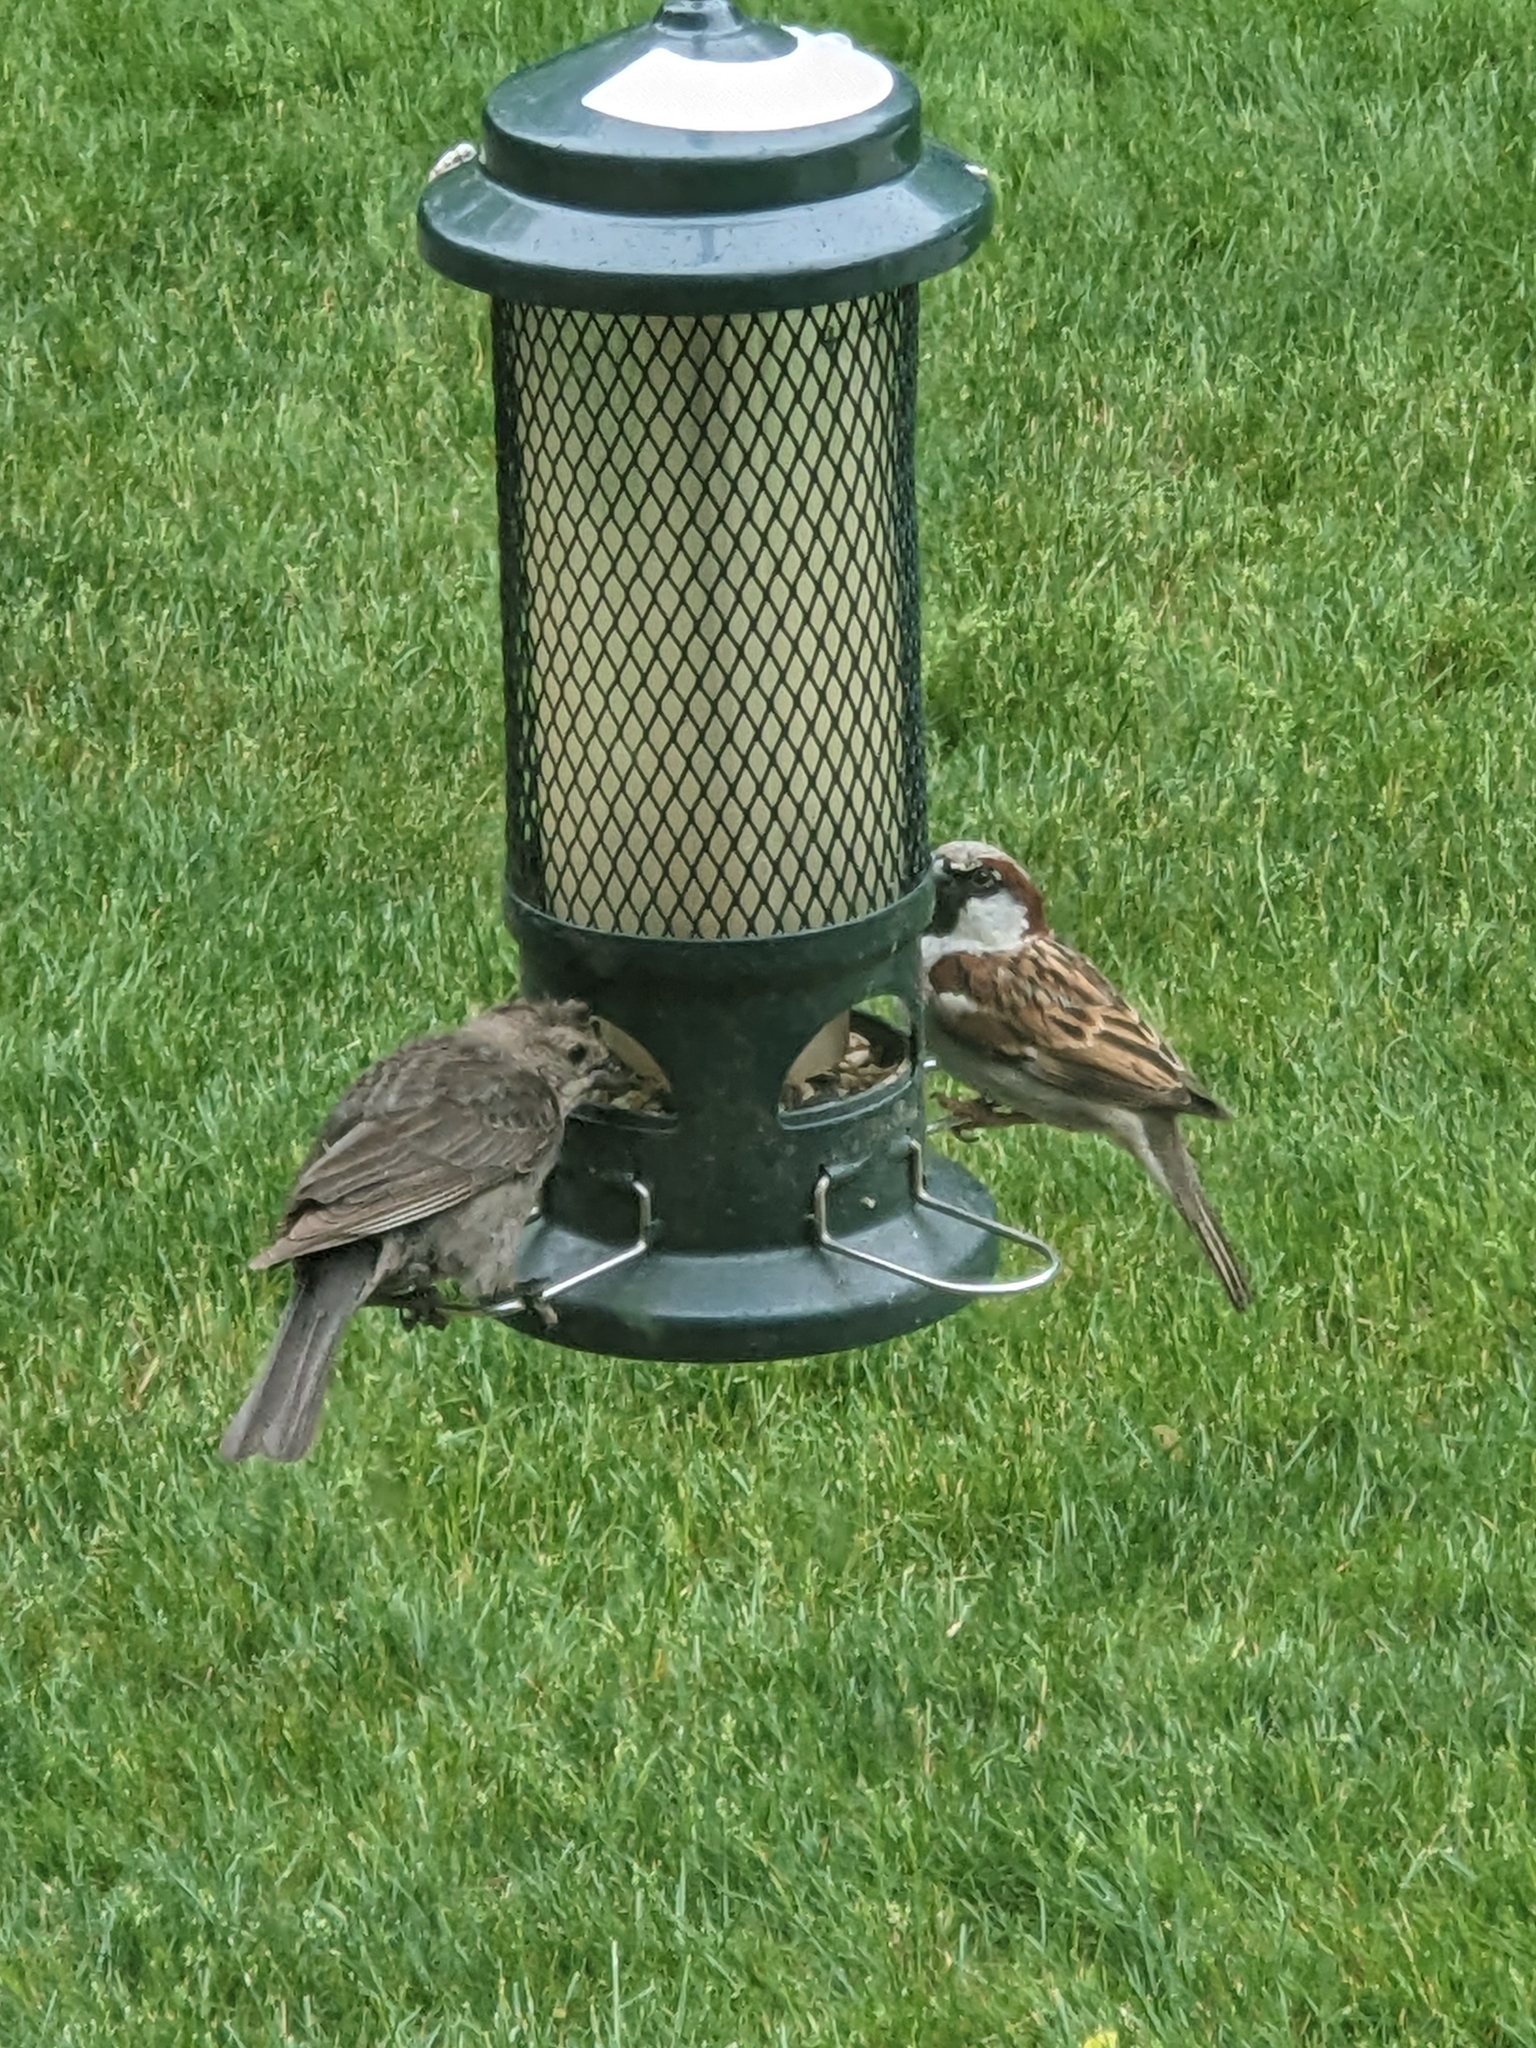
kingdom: Animalia
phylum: Chordata
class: Aves
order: Passeriformes
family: Passeridae
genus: Passer
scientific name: Passer domesticus
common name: House sparrow
